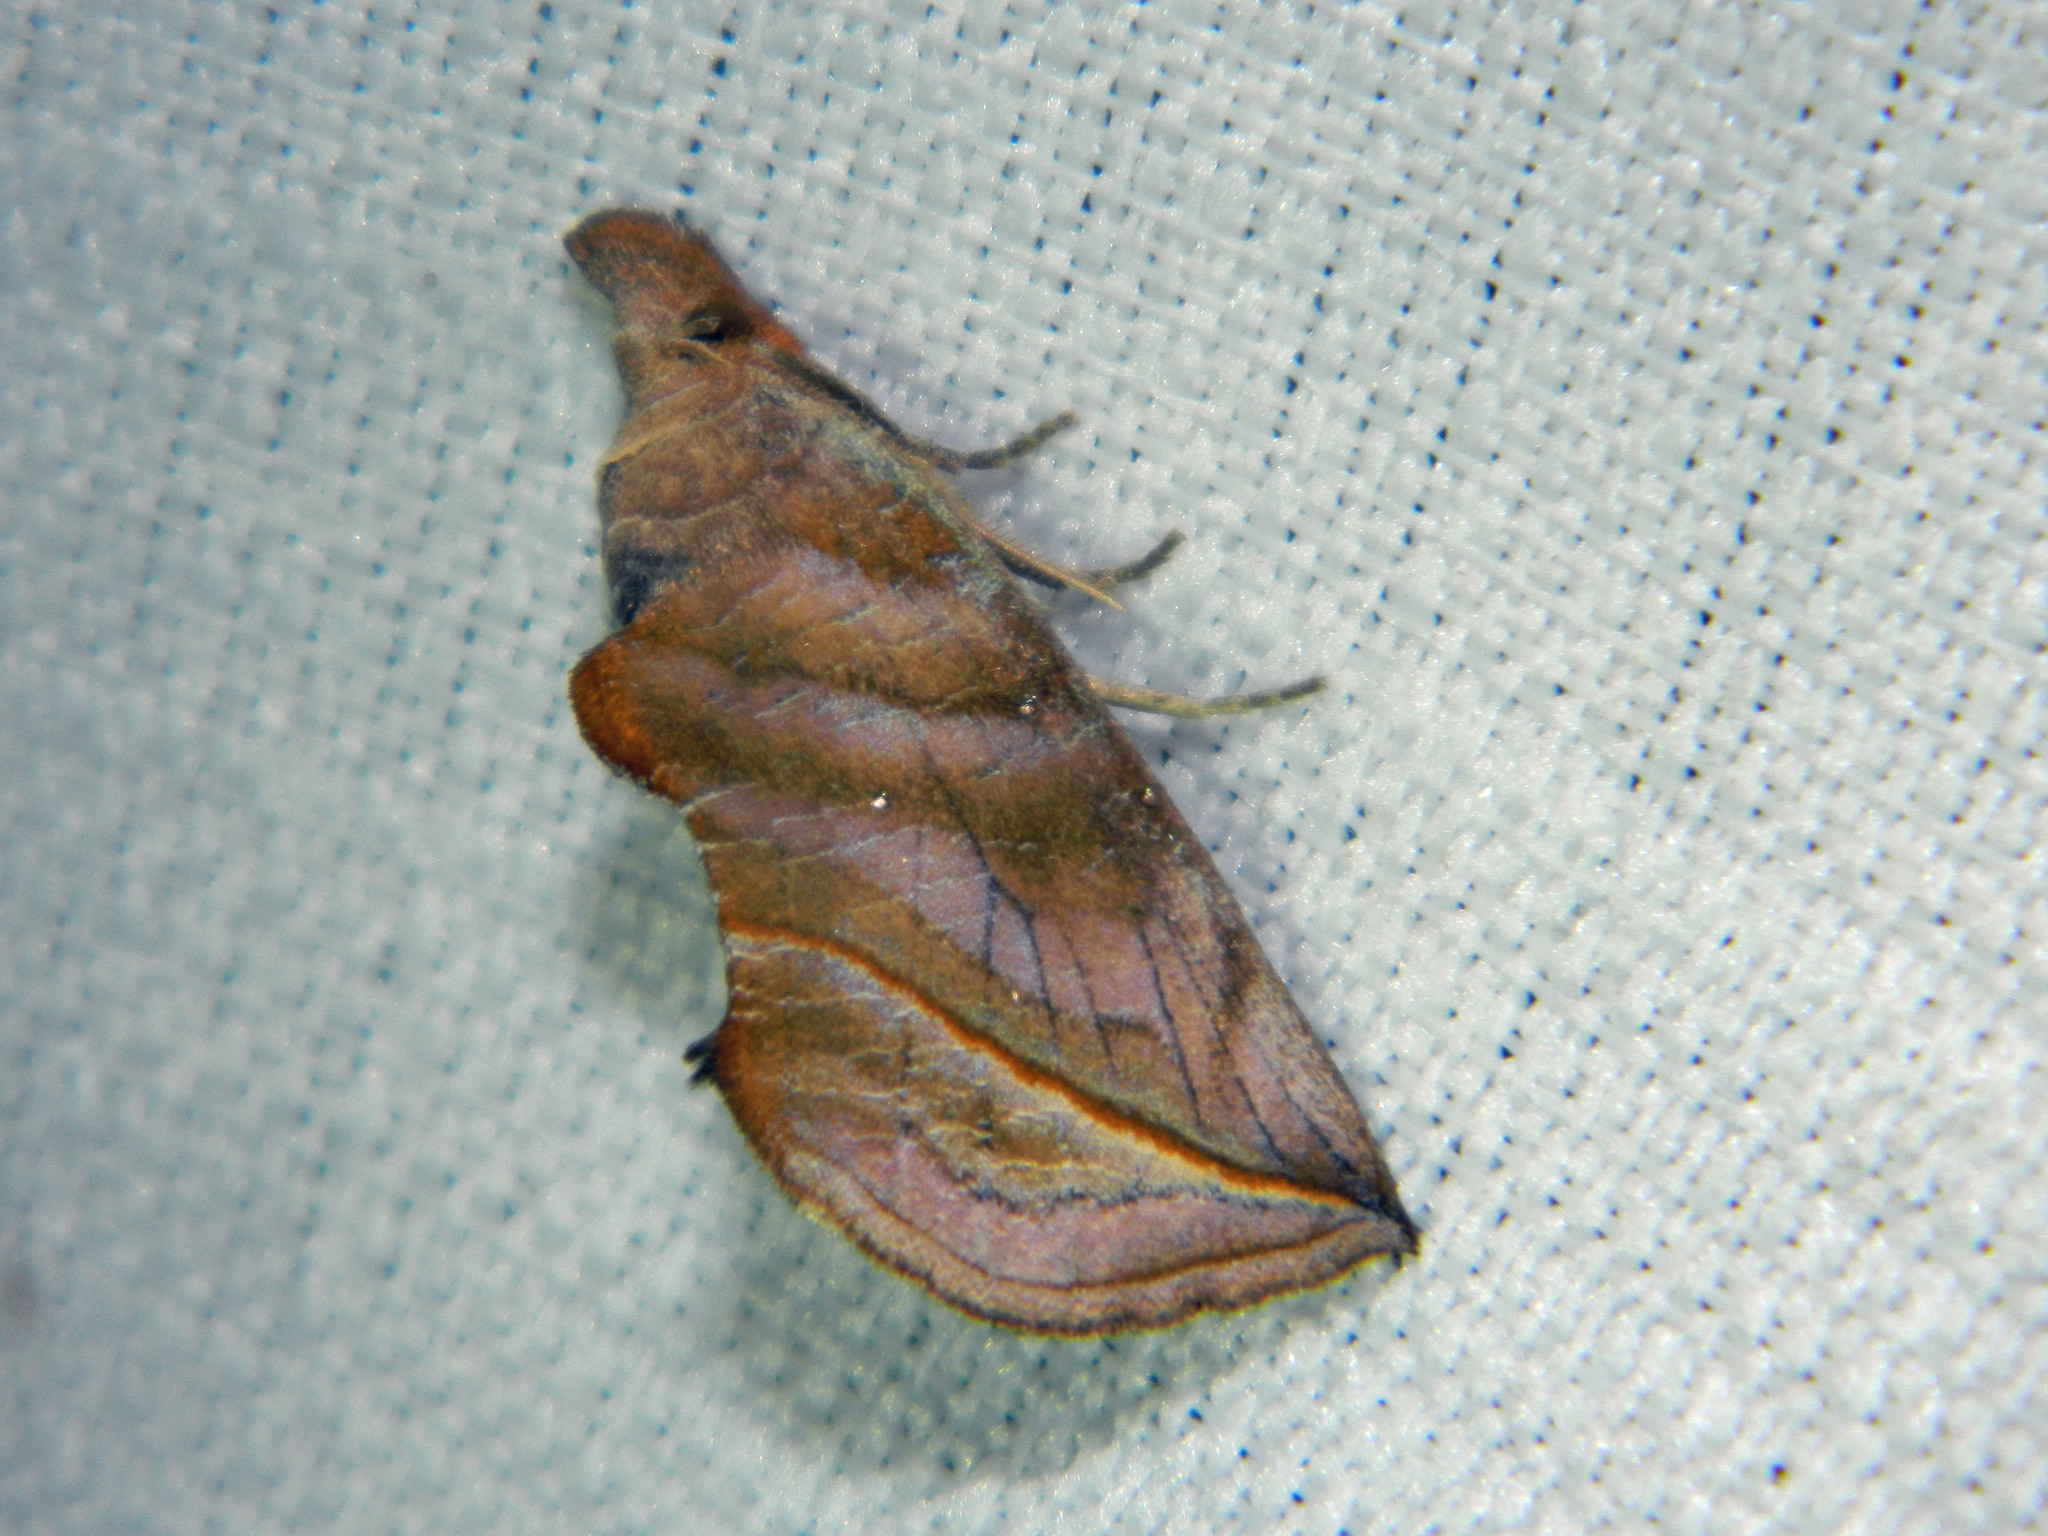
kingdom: Animalia
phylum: Arthropoda
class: Insecta
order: Lepidoptera
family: Erebidae
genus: Calyptra
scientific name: Calyptra canadensis
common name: Canadian owlet
